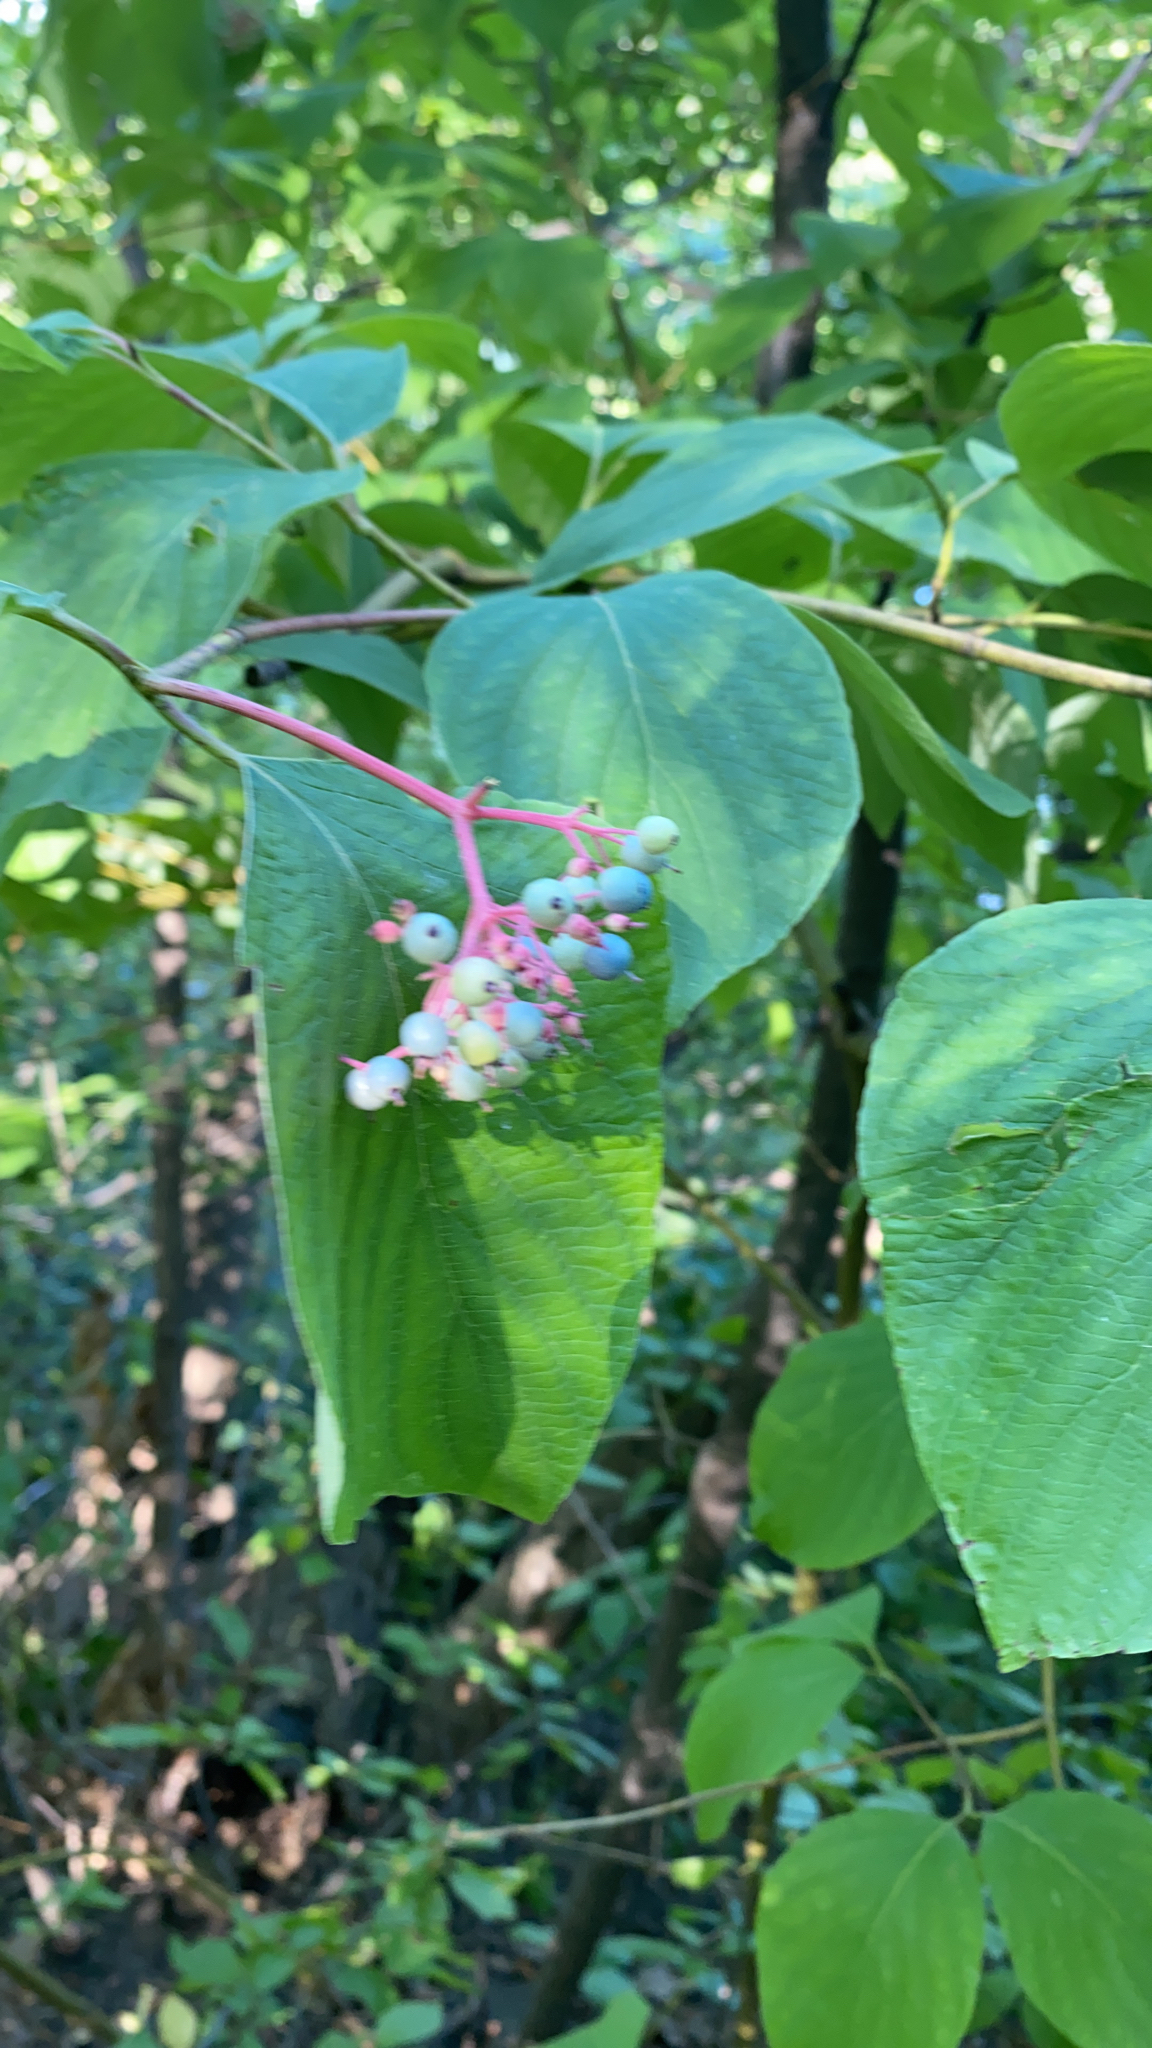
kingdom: Plantae
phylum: Tracheophyta
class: Magnoliopsida
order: Cornales
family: Cornaceae
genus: Cornus
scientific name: Cornus rugosa
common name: Round-leaf dogwood
